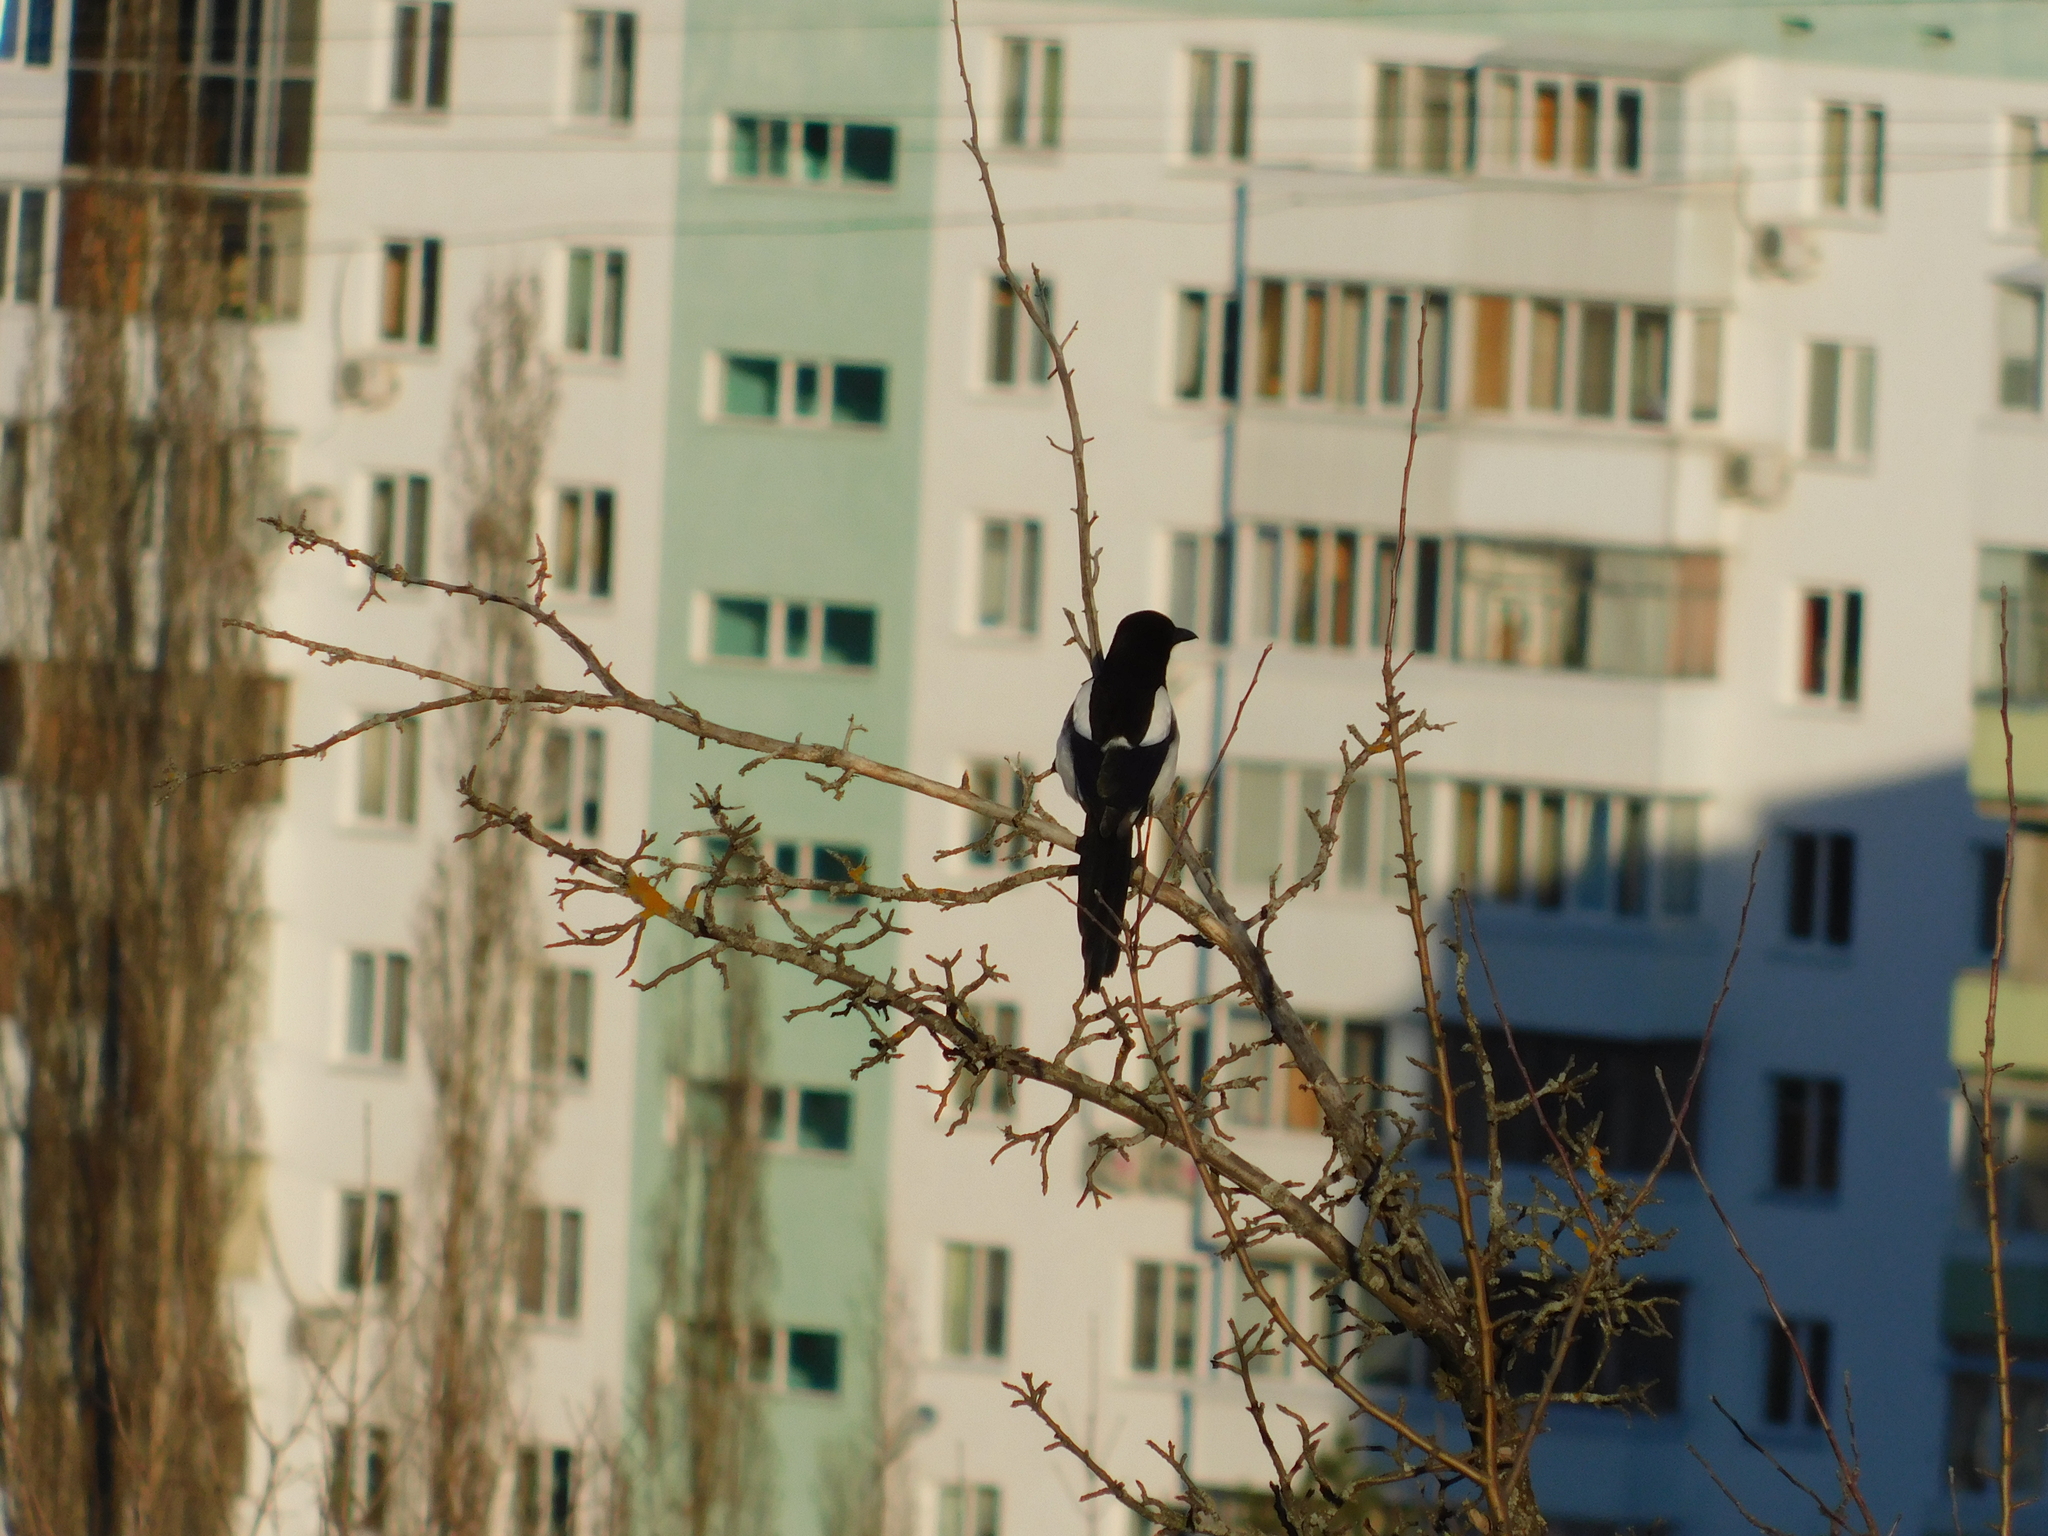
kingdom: Animalia
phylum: Chordata
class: Aves
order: Passeriformes
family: Corvidae
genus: Pica
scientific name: Pica pica
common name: Eurasian magpie
